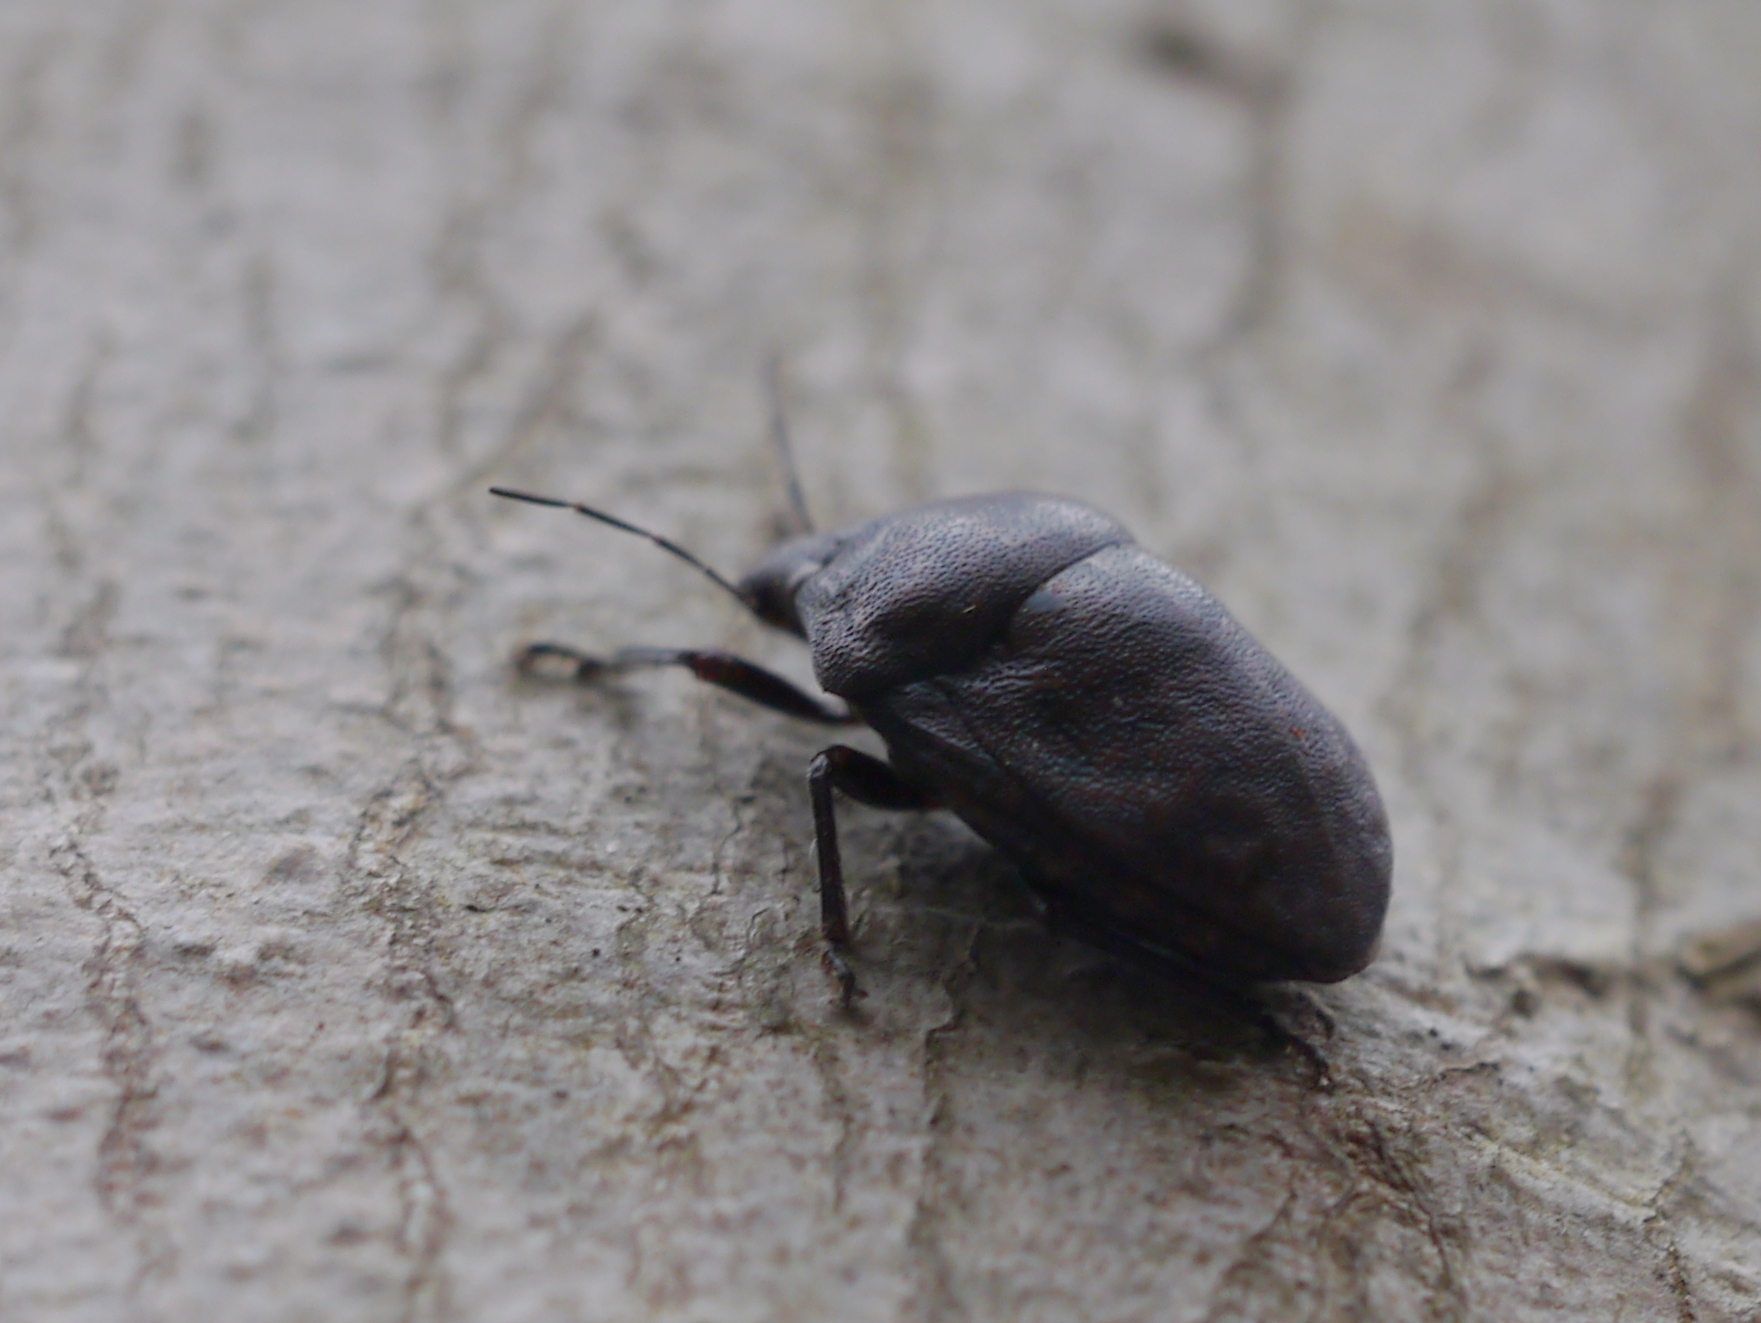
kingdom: Animalia
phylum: Arthropoda
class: Insecta
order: Hemiptera
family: Scutelleridae
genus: Tetyra
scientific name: Tetyra bipunctata
